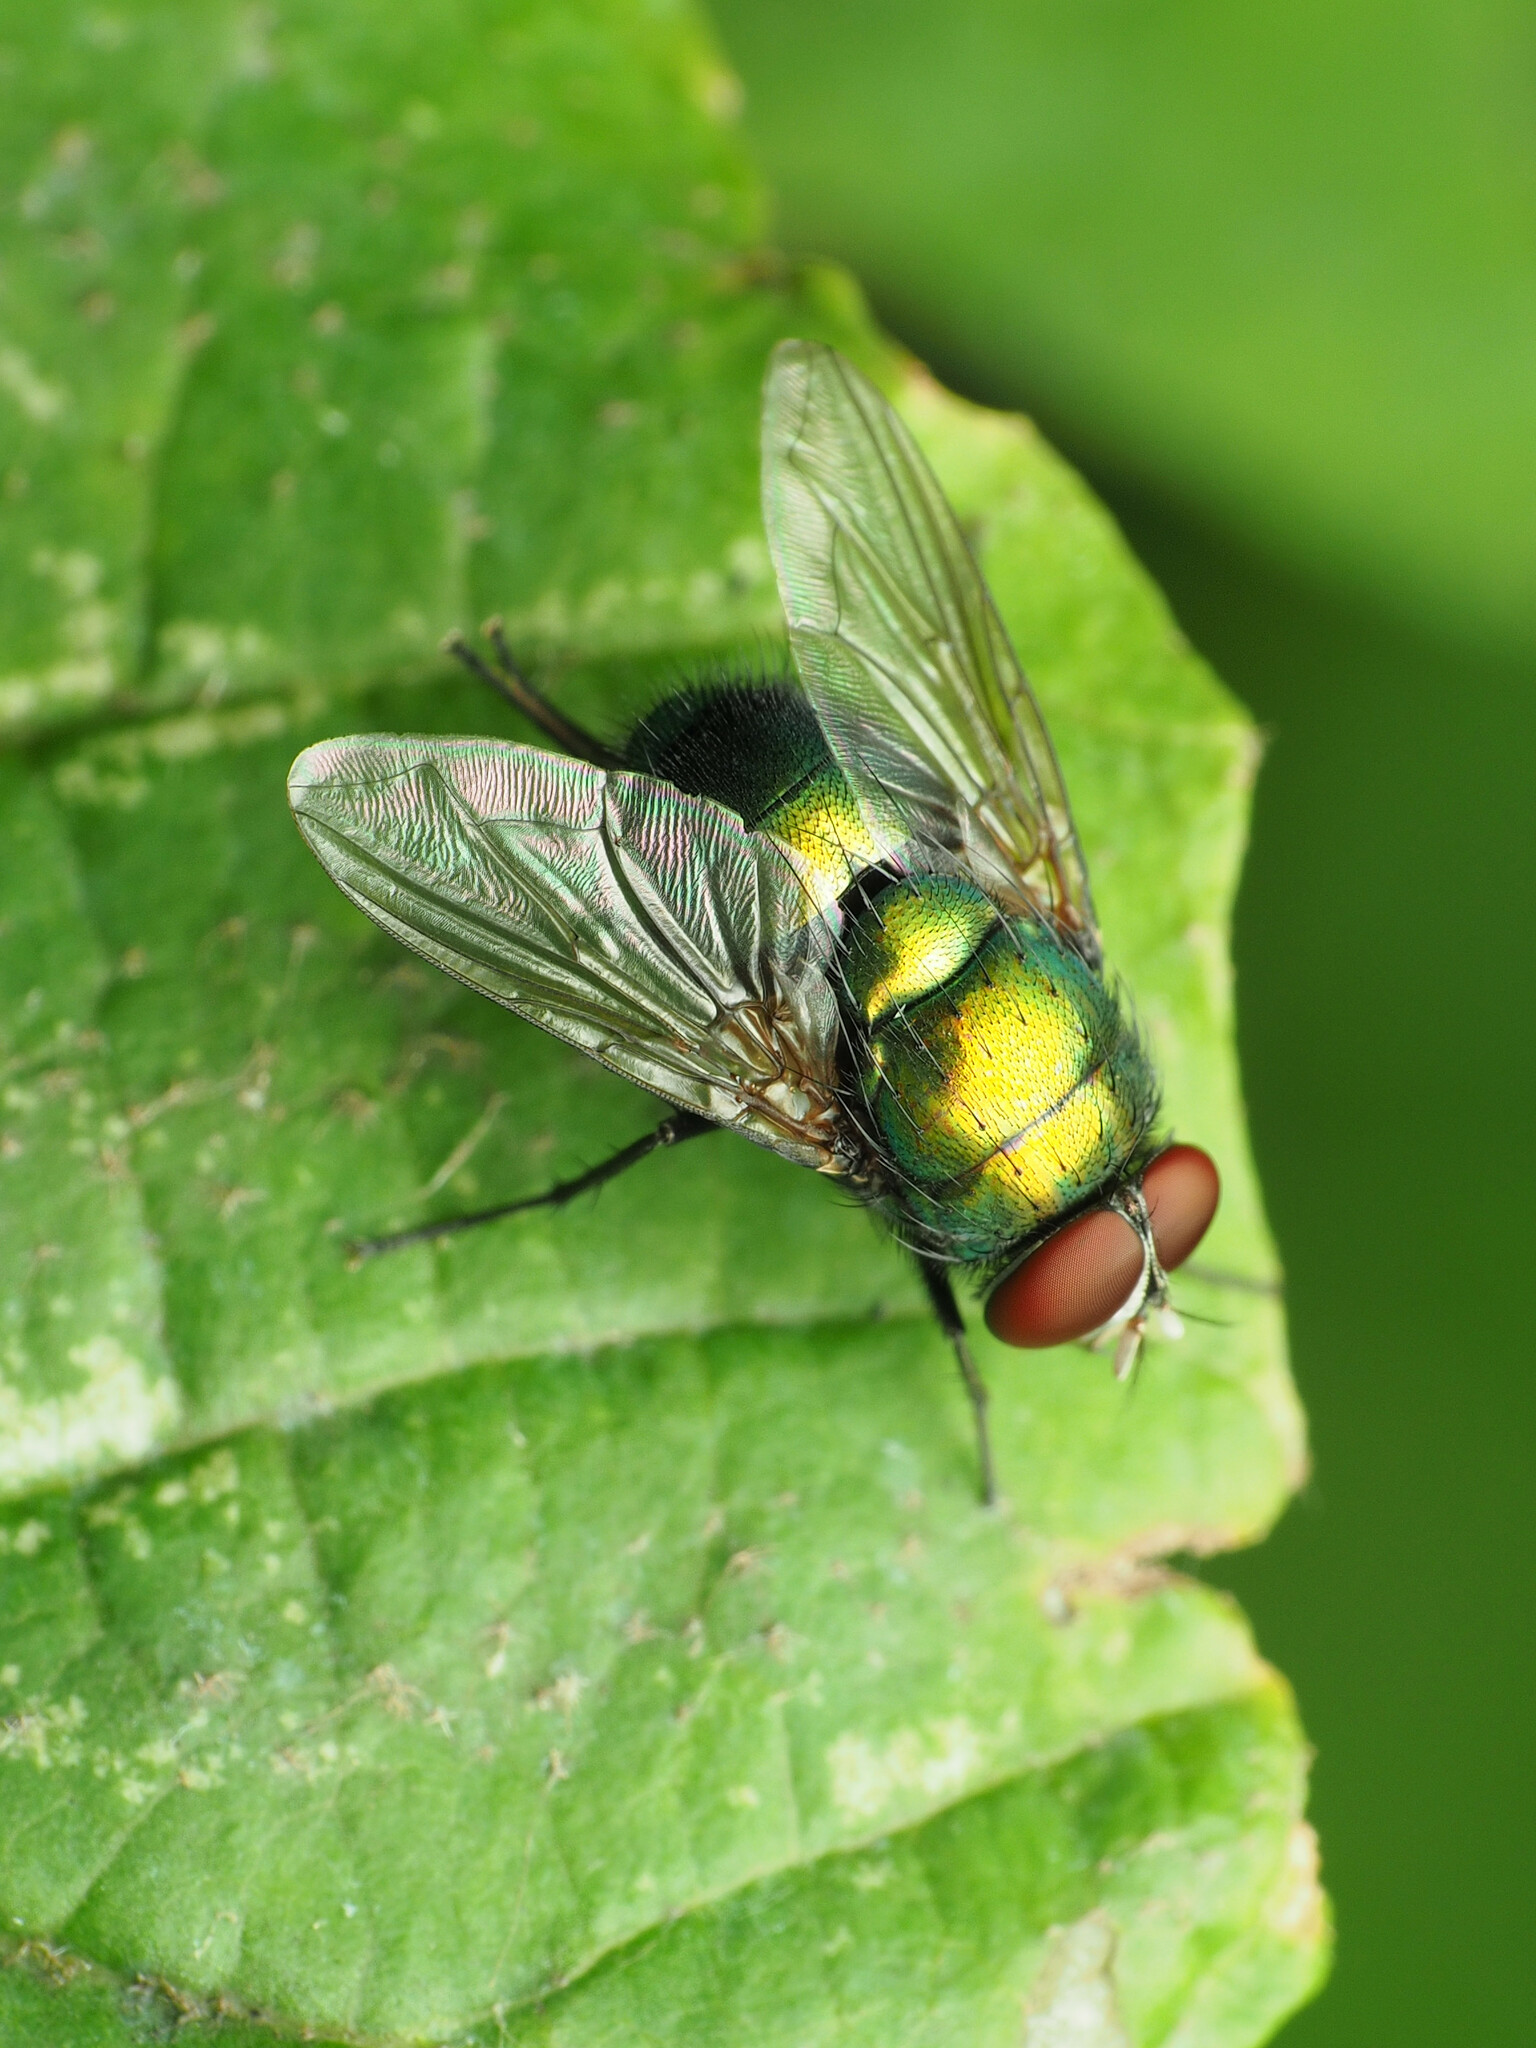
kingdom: Animalia
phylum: Arthropoda
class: Insecta
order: Diptera
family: Calliphoridae
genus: Lucilia
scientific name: Lucilia illustris
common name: Illustrious greenbottle
